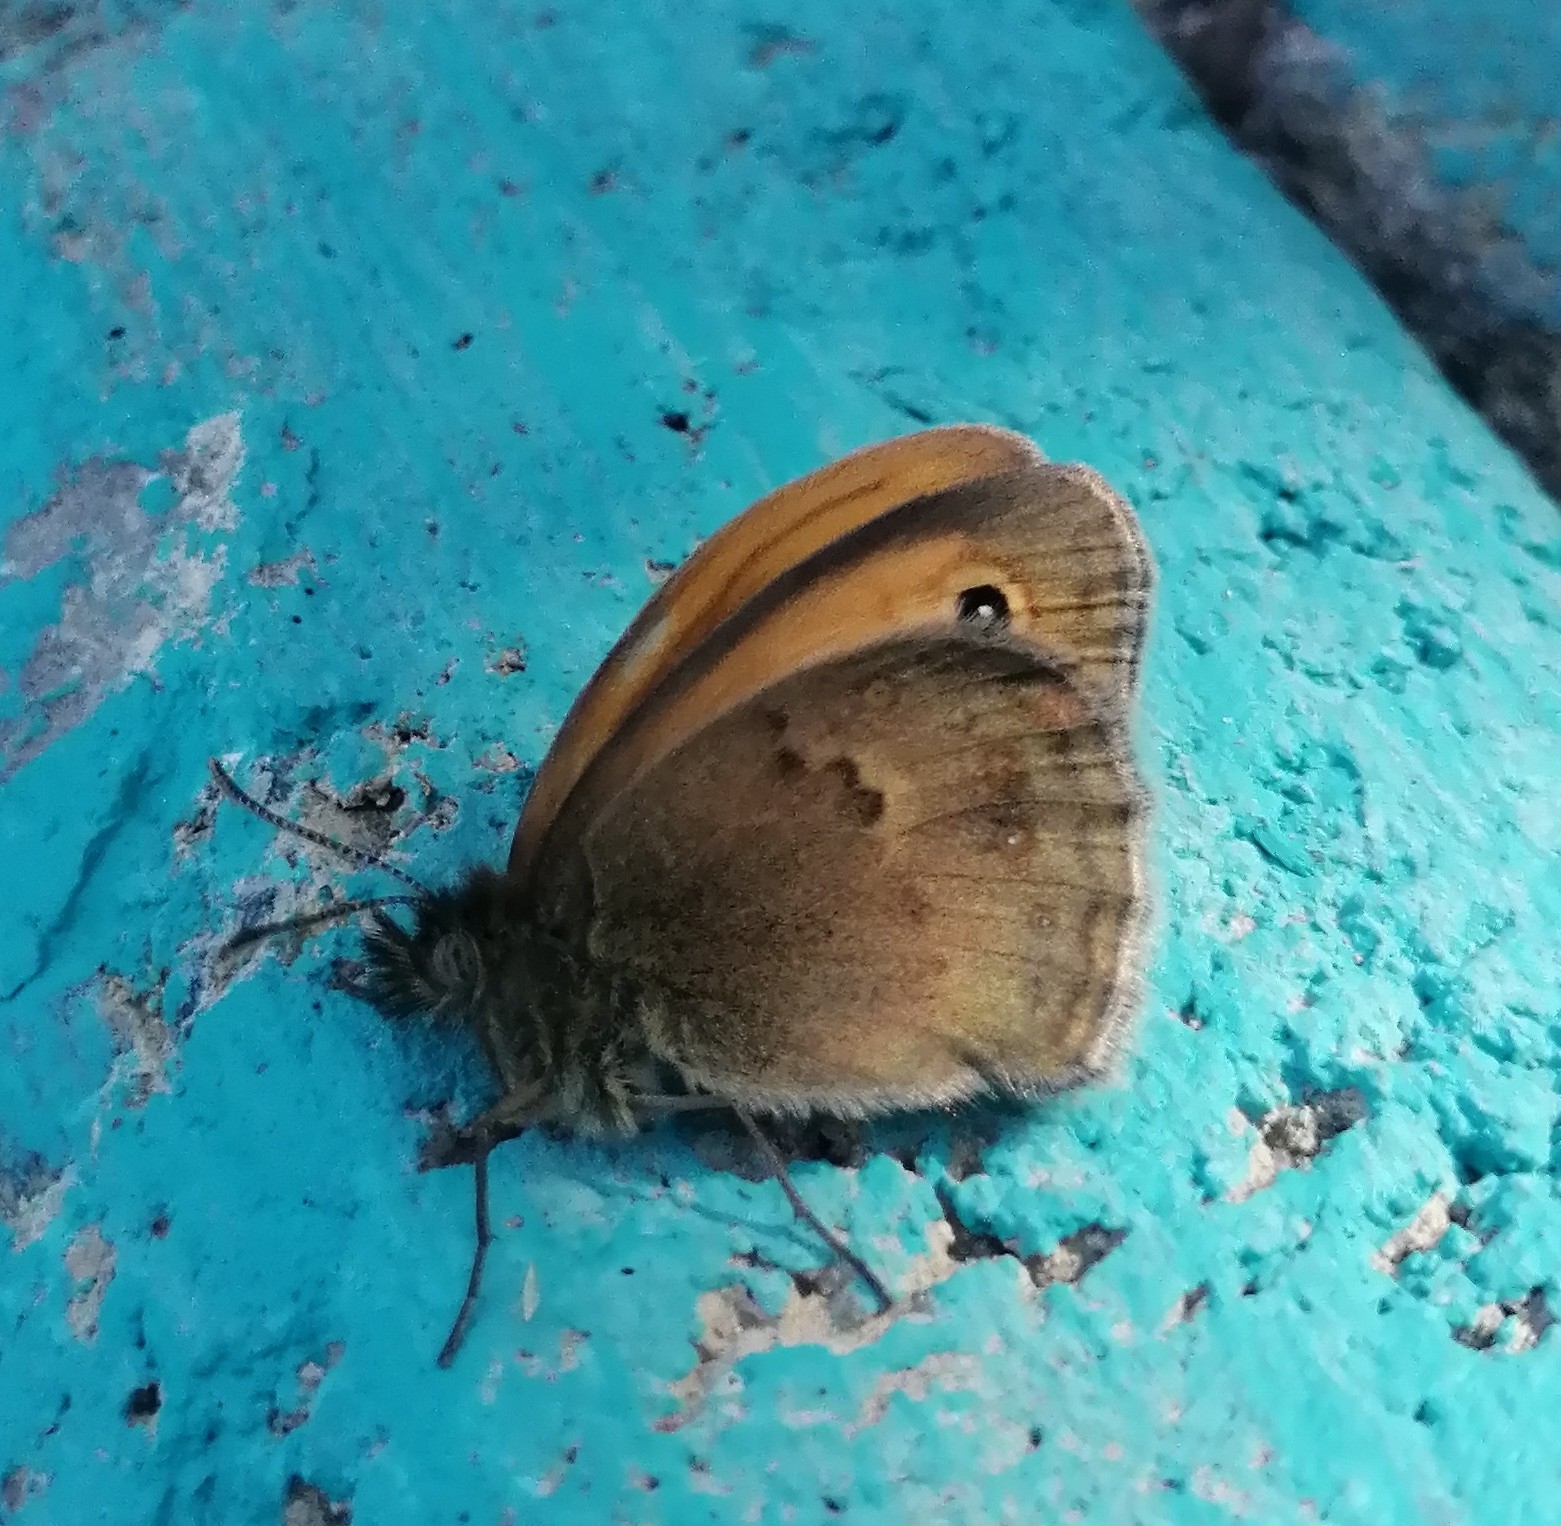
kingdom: Animalia
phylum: Arthropoda
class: Insecta
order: Lepidoptera
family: Nymphalidae
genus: Coenonympha
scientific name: Coenonympha pamphilus
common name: Small heath
